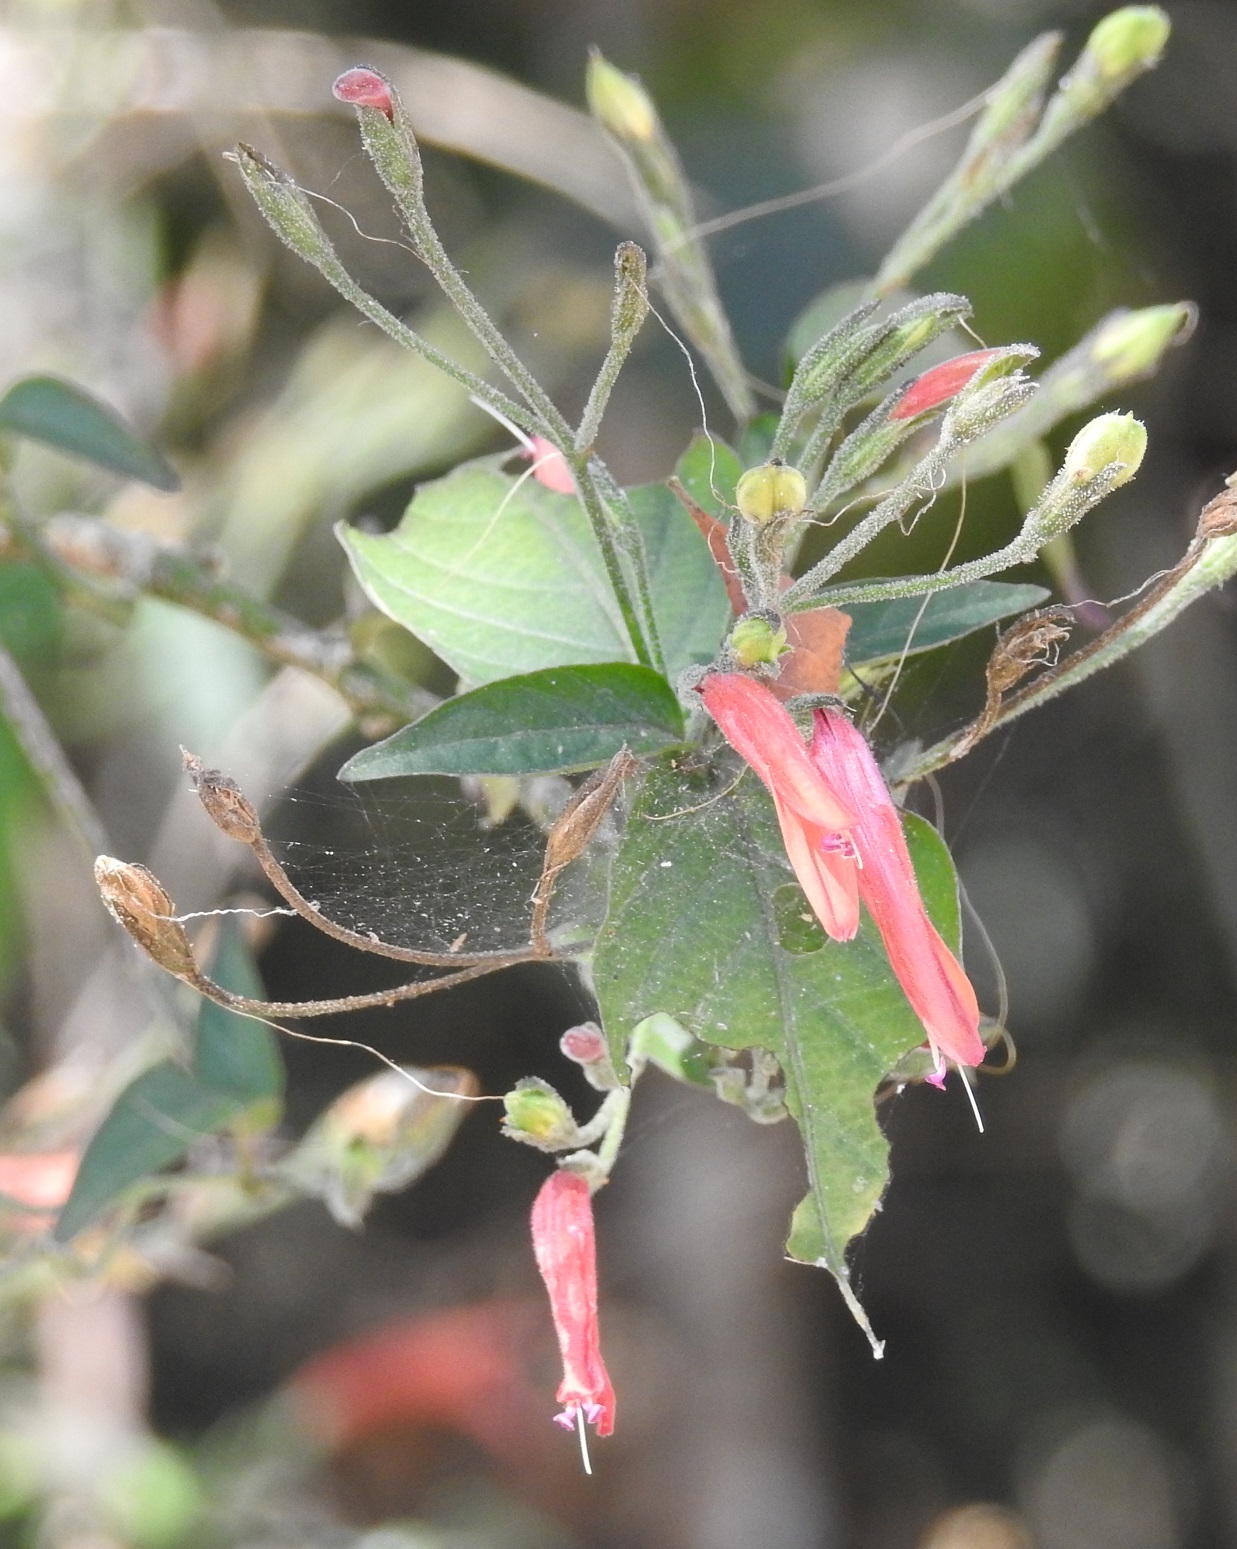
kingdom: Plantae
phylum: Tracheophyta
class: Magnoliopsida
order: Lamiales
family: Acanthaceae
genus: Dicliptera
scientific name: Dicliptera sciadephora
